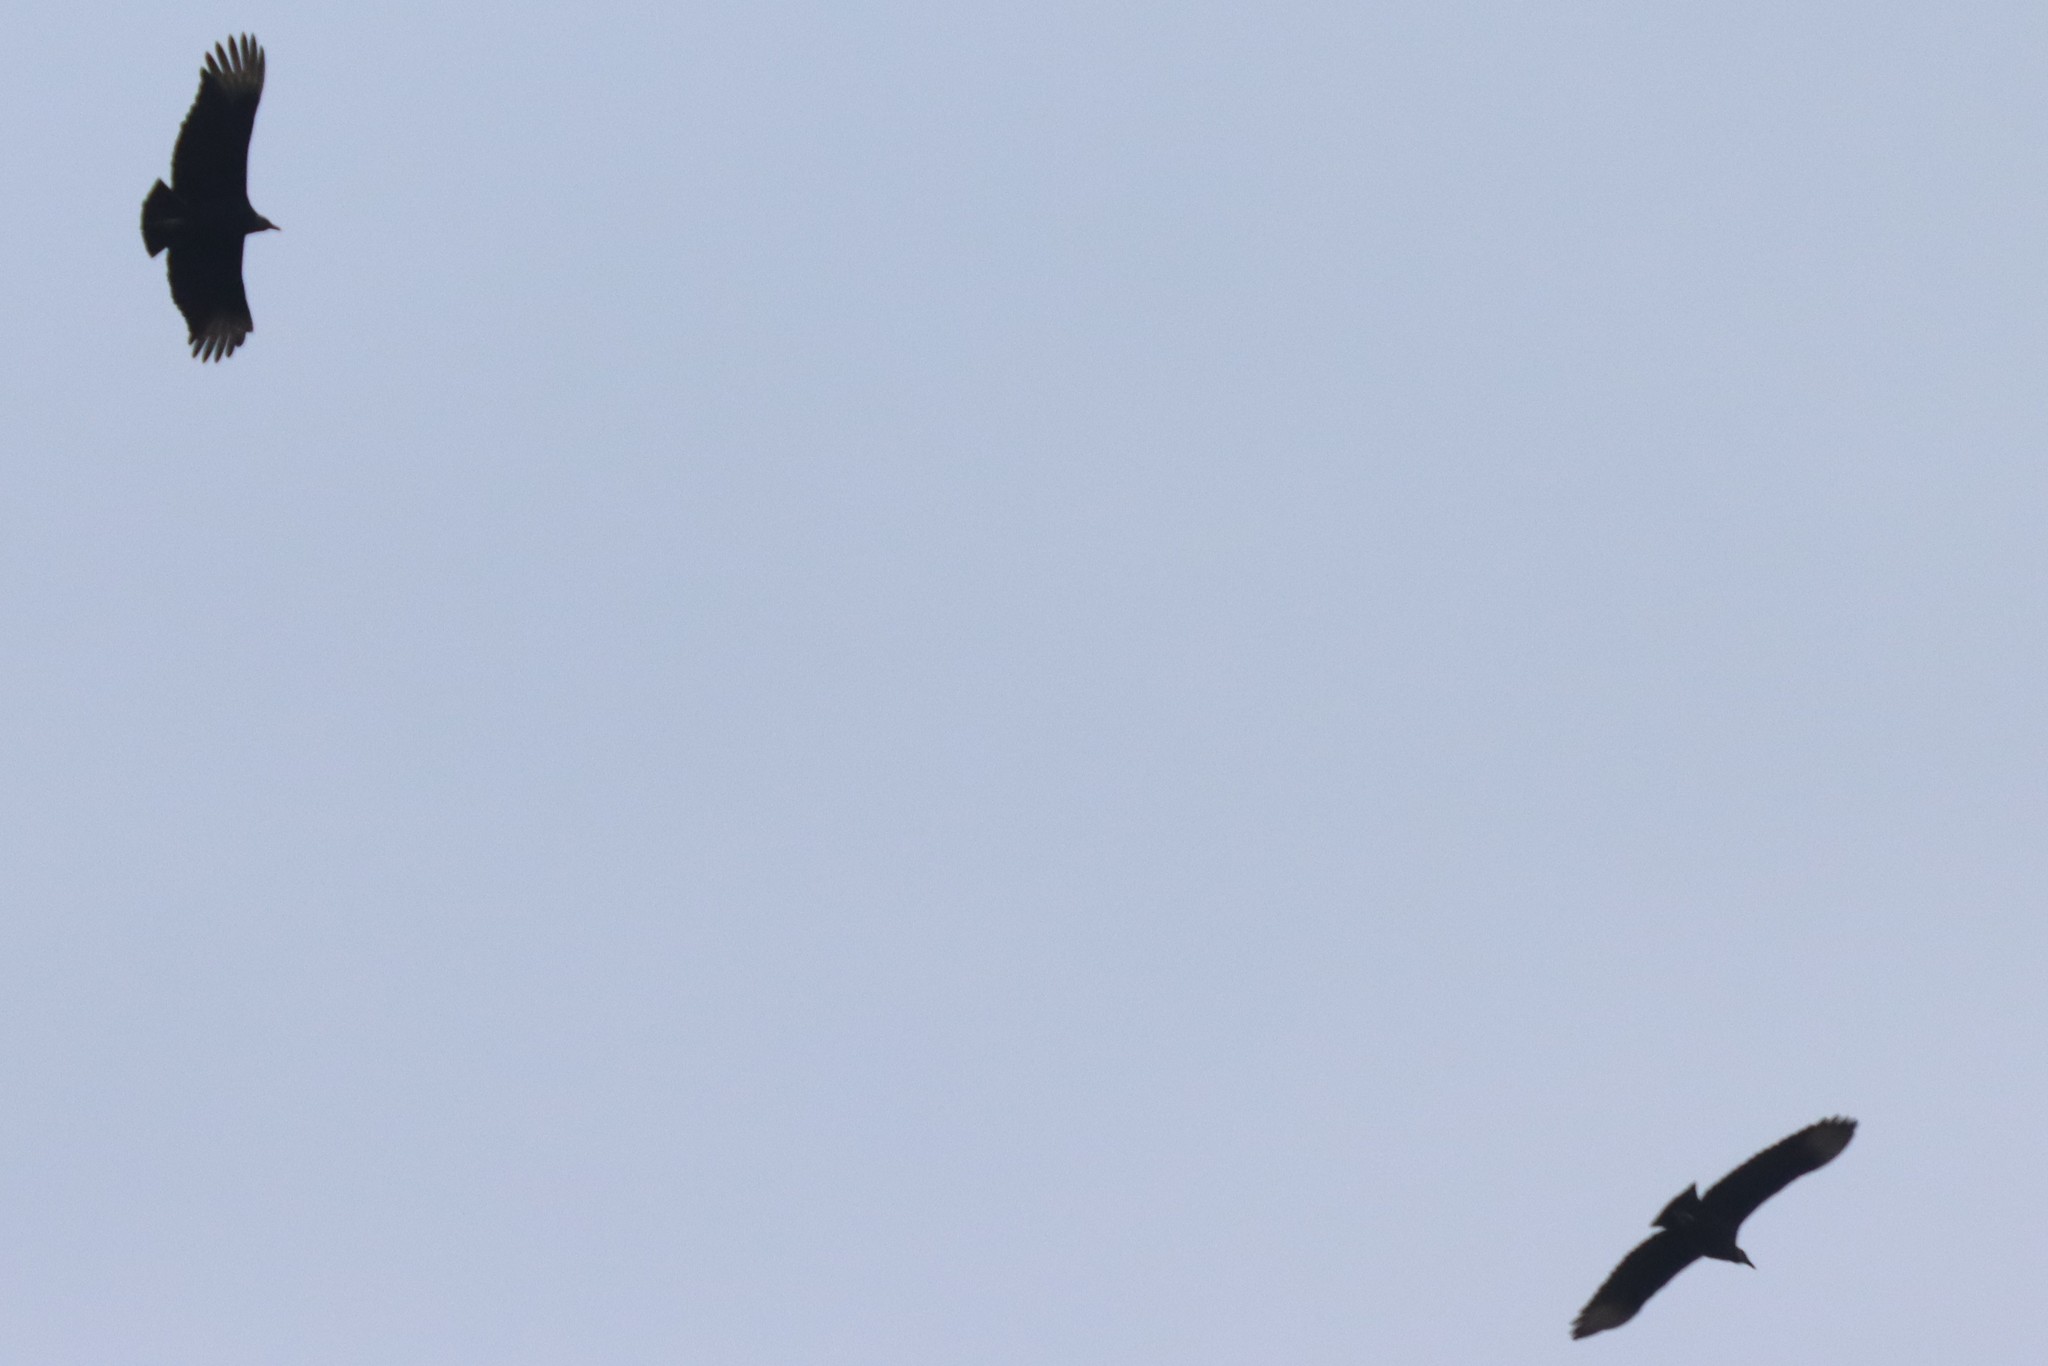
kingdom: Animalia
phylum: Chordata
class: Aves
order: Accipitriformes
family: Cathartidae
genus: Coragyps
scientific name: Coragyps atratus
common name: Black vulture
